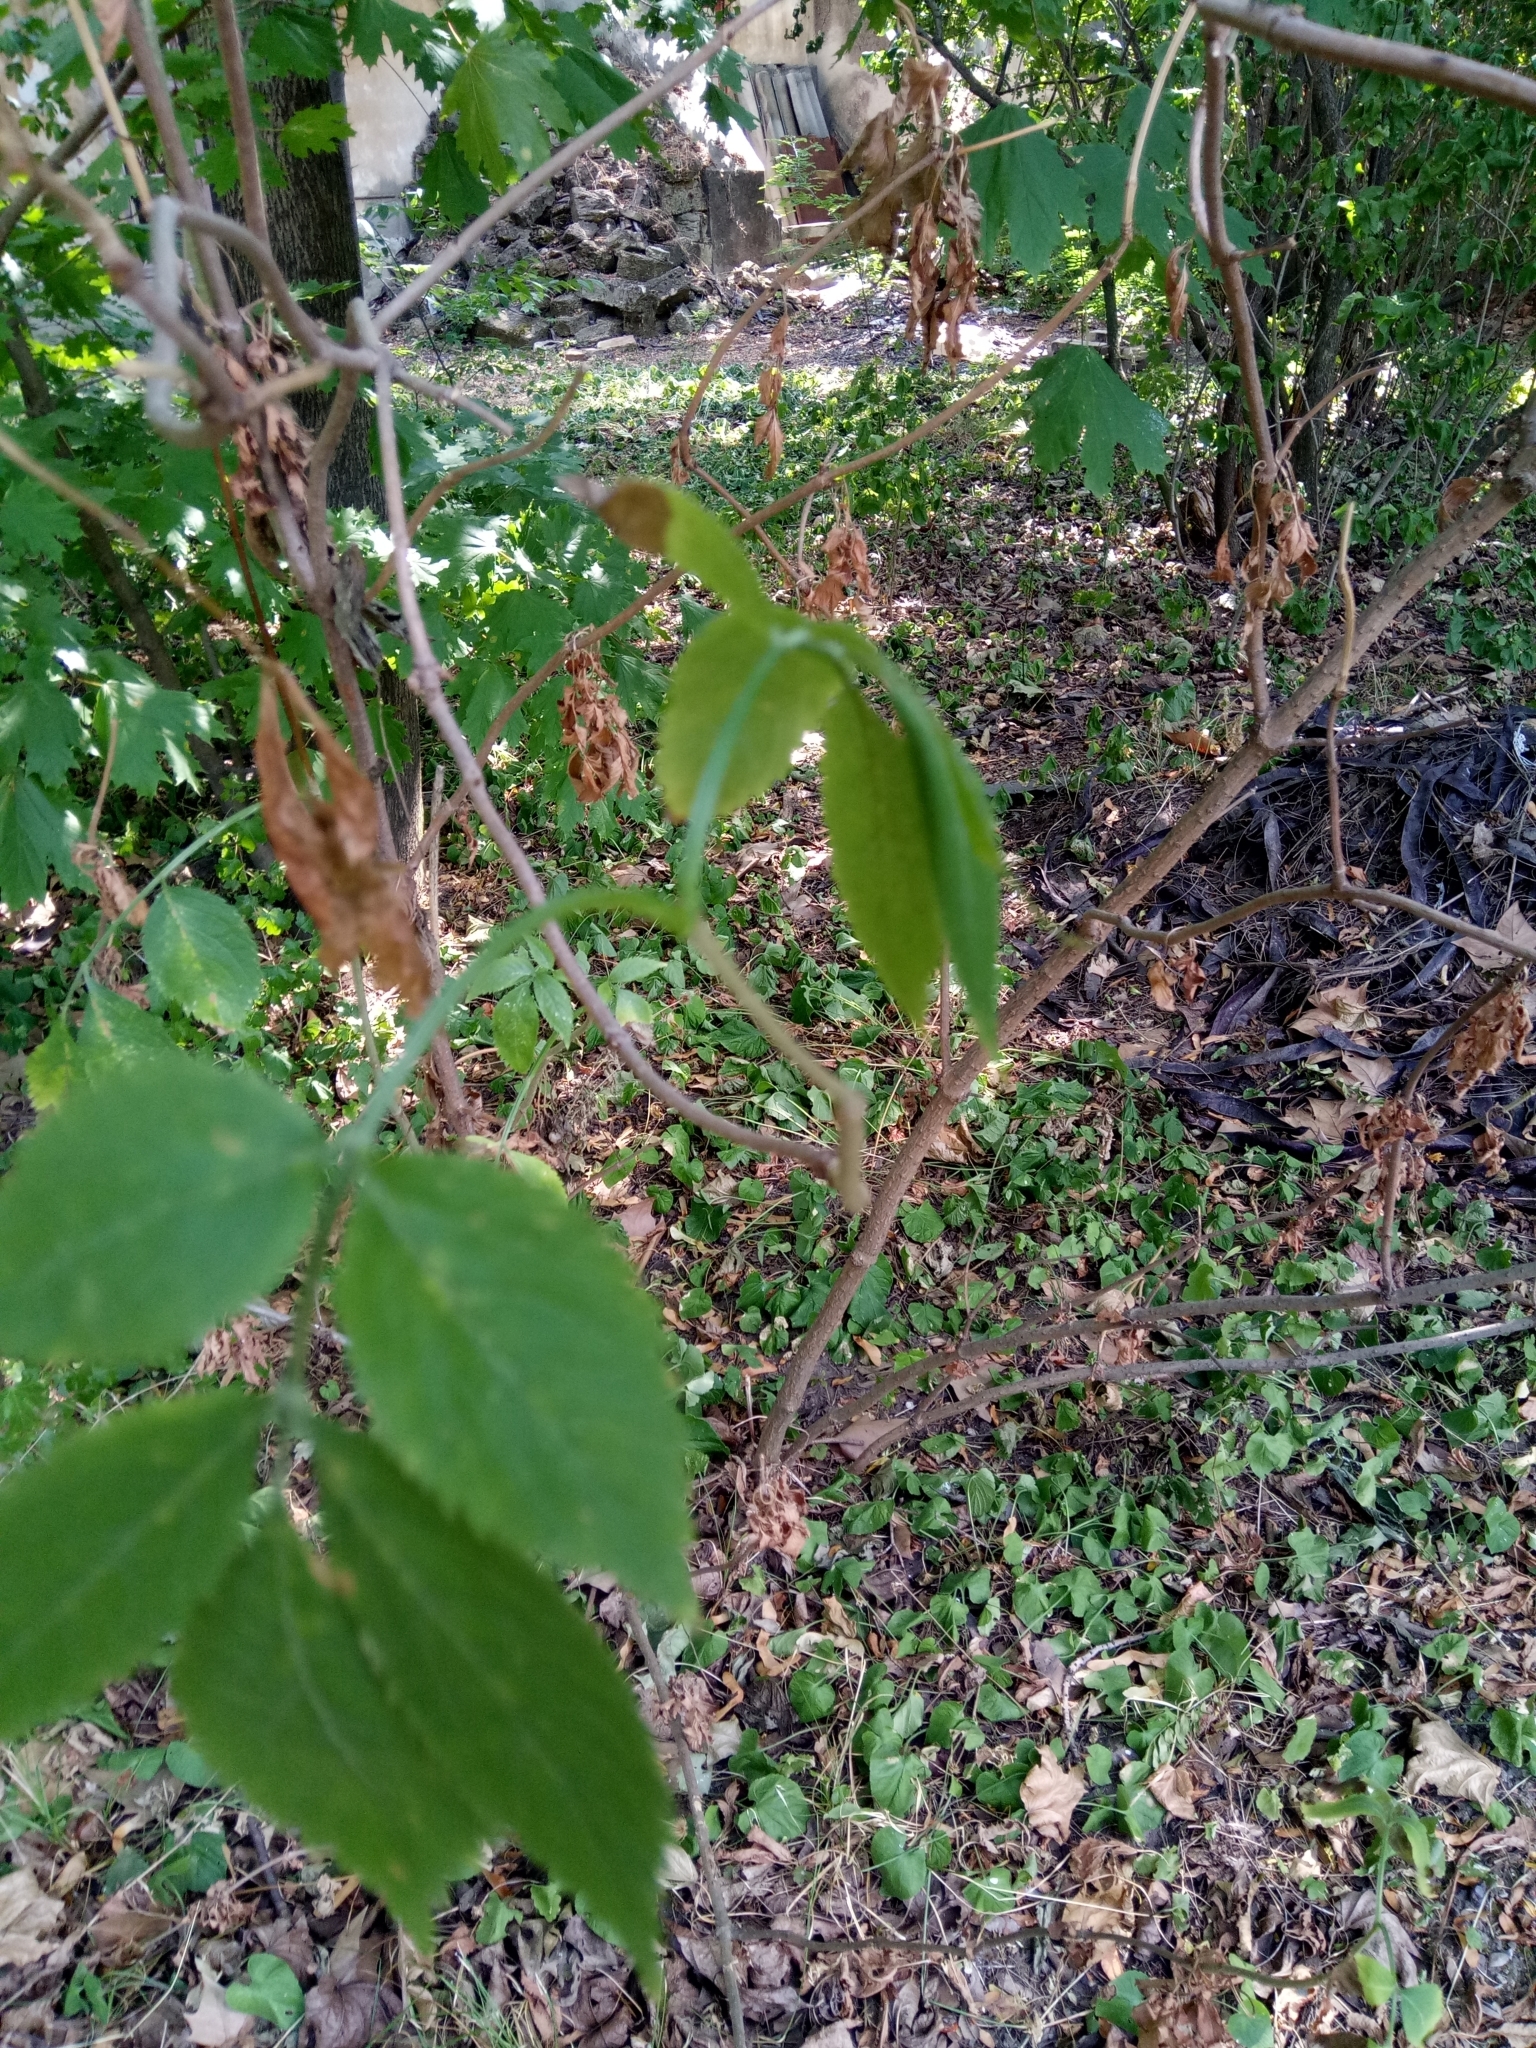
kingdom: Plantae
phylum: Tracheophyta
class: Magnoliopsida
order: Dipsacales
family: Viburnaceae
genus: Sambucus
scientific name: Sambucus nigra
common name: Elder
